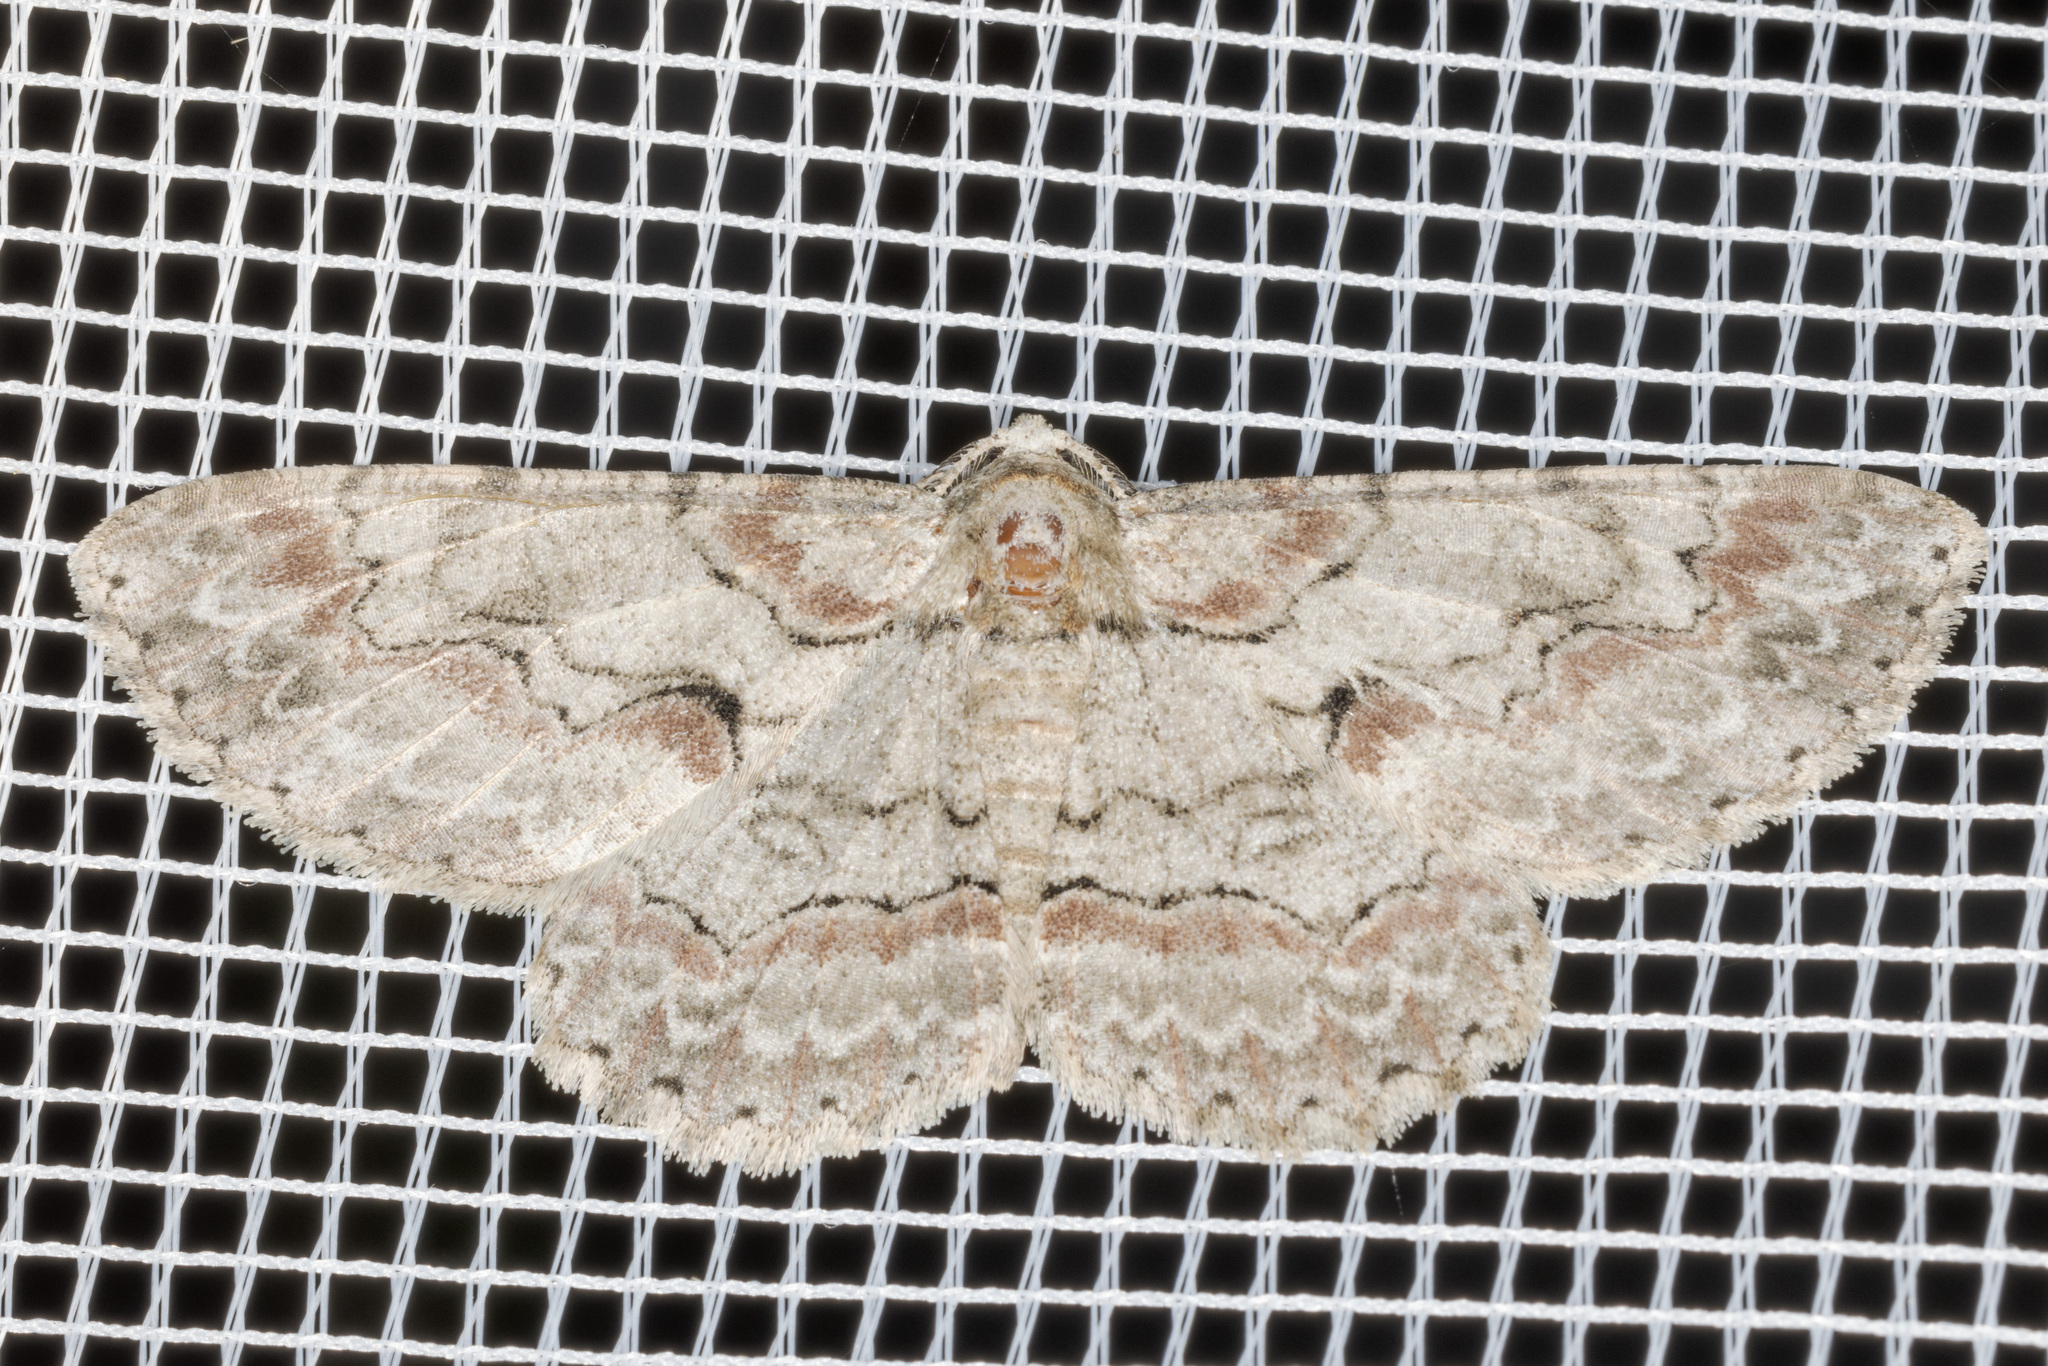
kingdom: Animalia
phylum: Arthropoda
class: Insecta
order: Lepidoptera
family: Geometridae
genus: Iridopsis
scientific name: Iridopsis defectaria
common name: Brown-shaded gray
